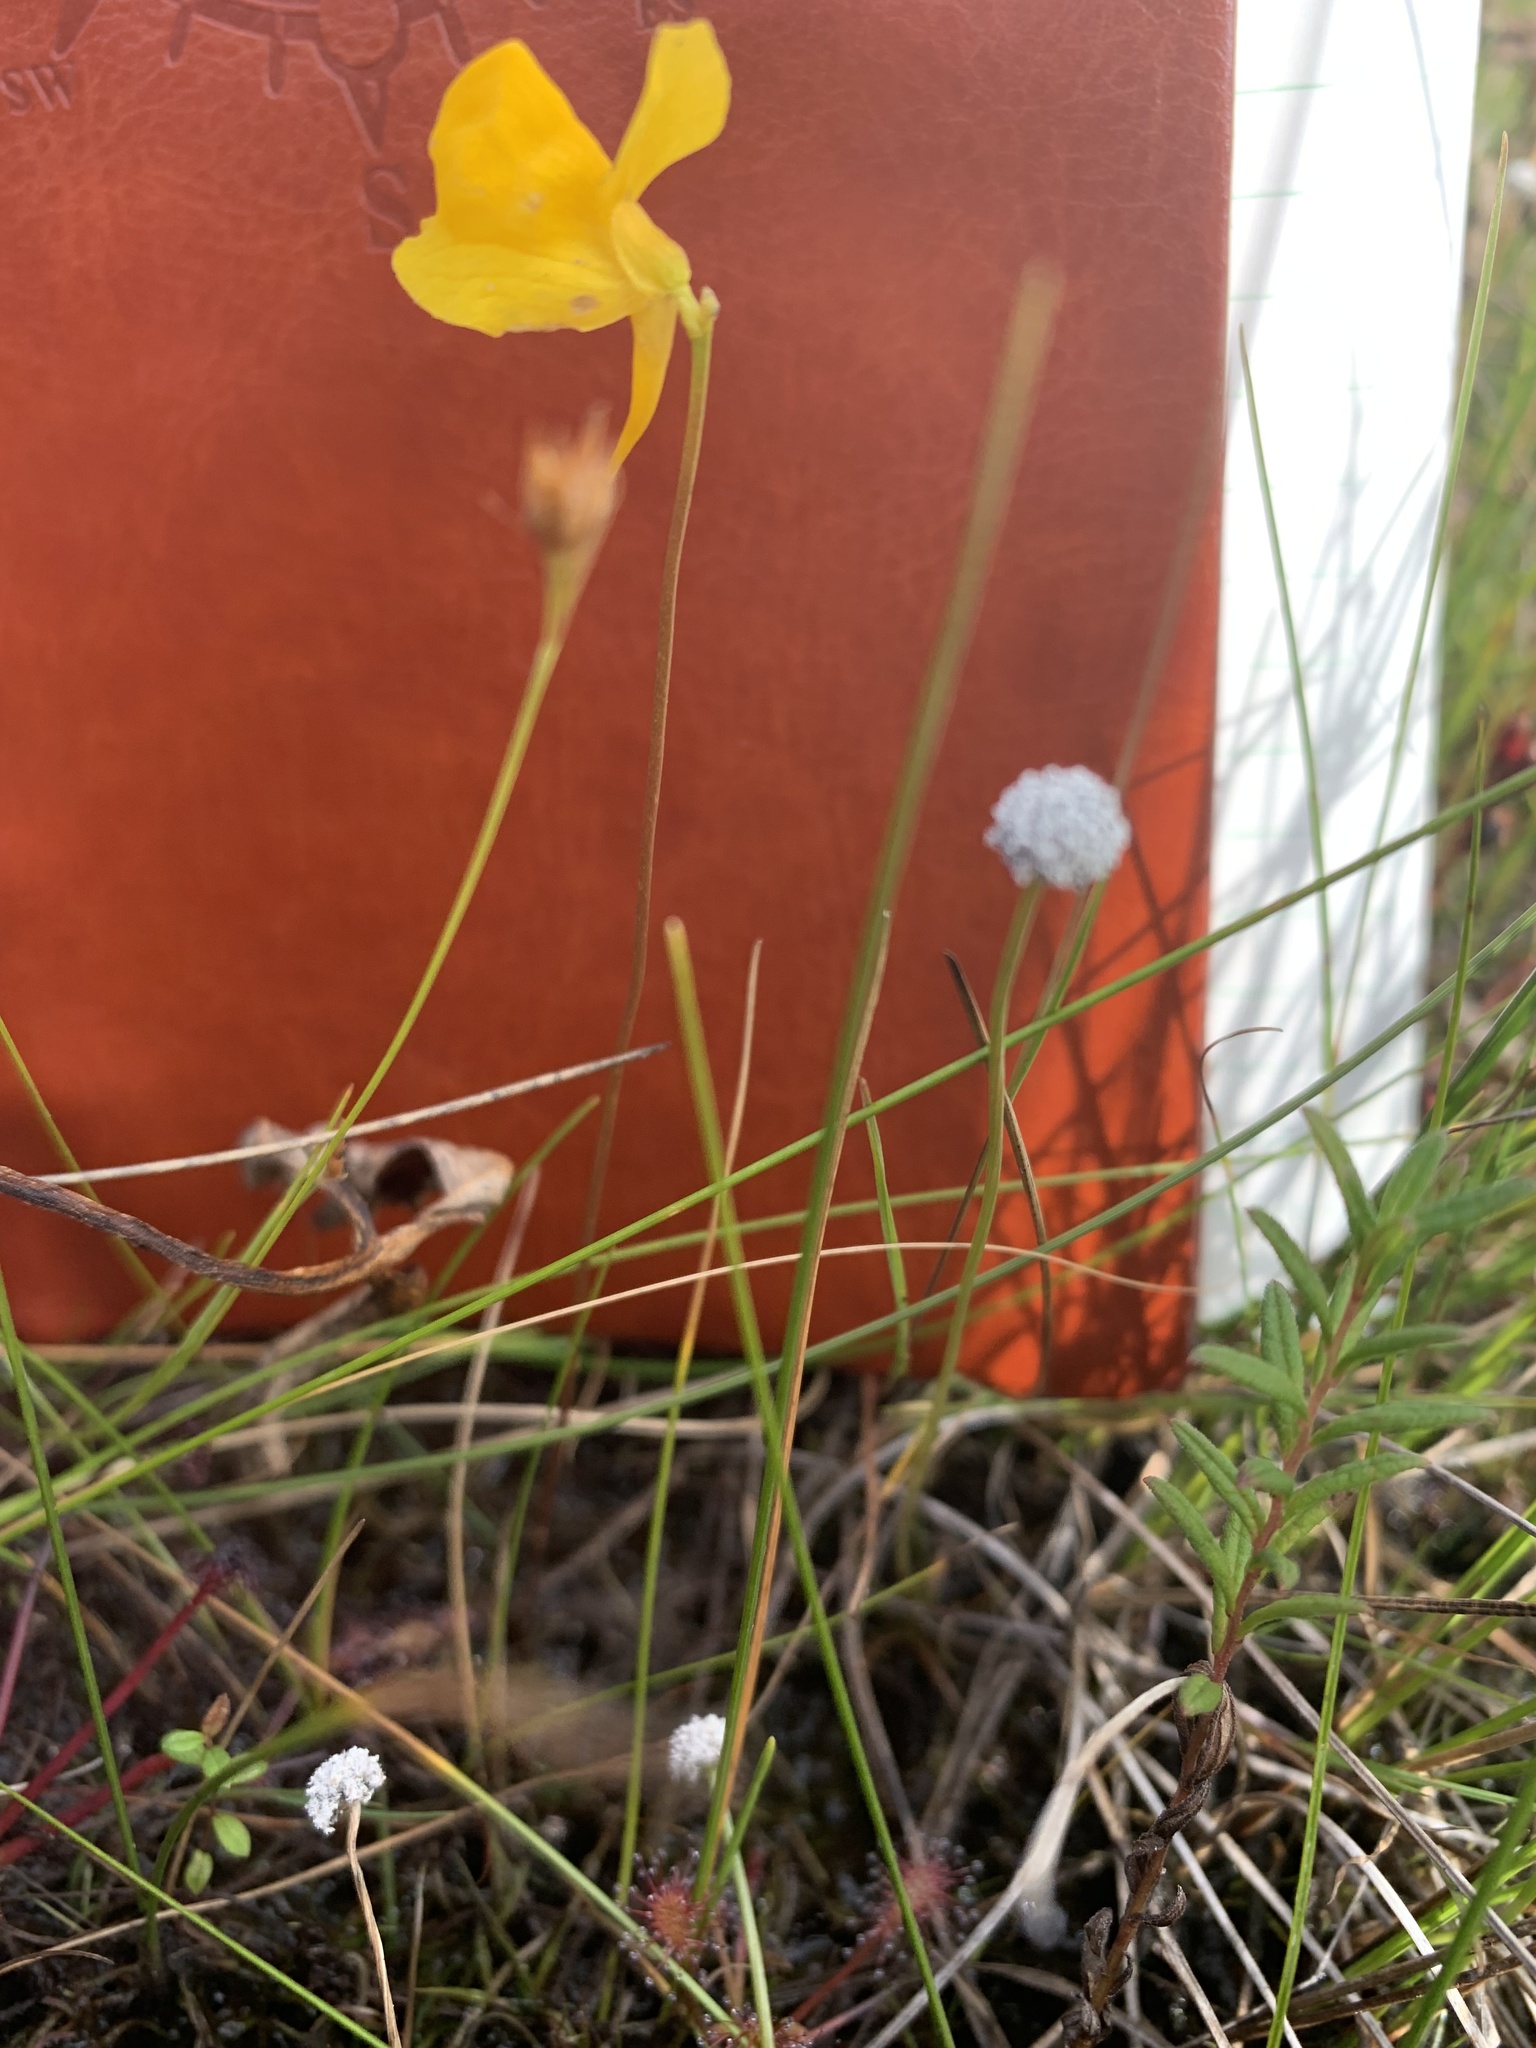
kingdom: Plantae
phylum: Tracheophyta
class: Magnoliopsida
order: Lamiales
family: Lentibulariaceae
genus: Utricularia
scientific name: Utricularia cornuta
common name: Horned bladderwort
